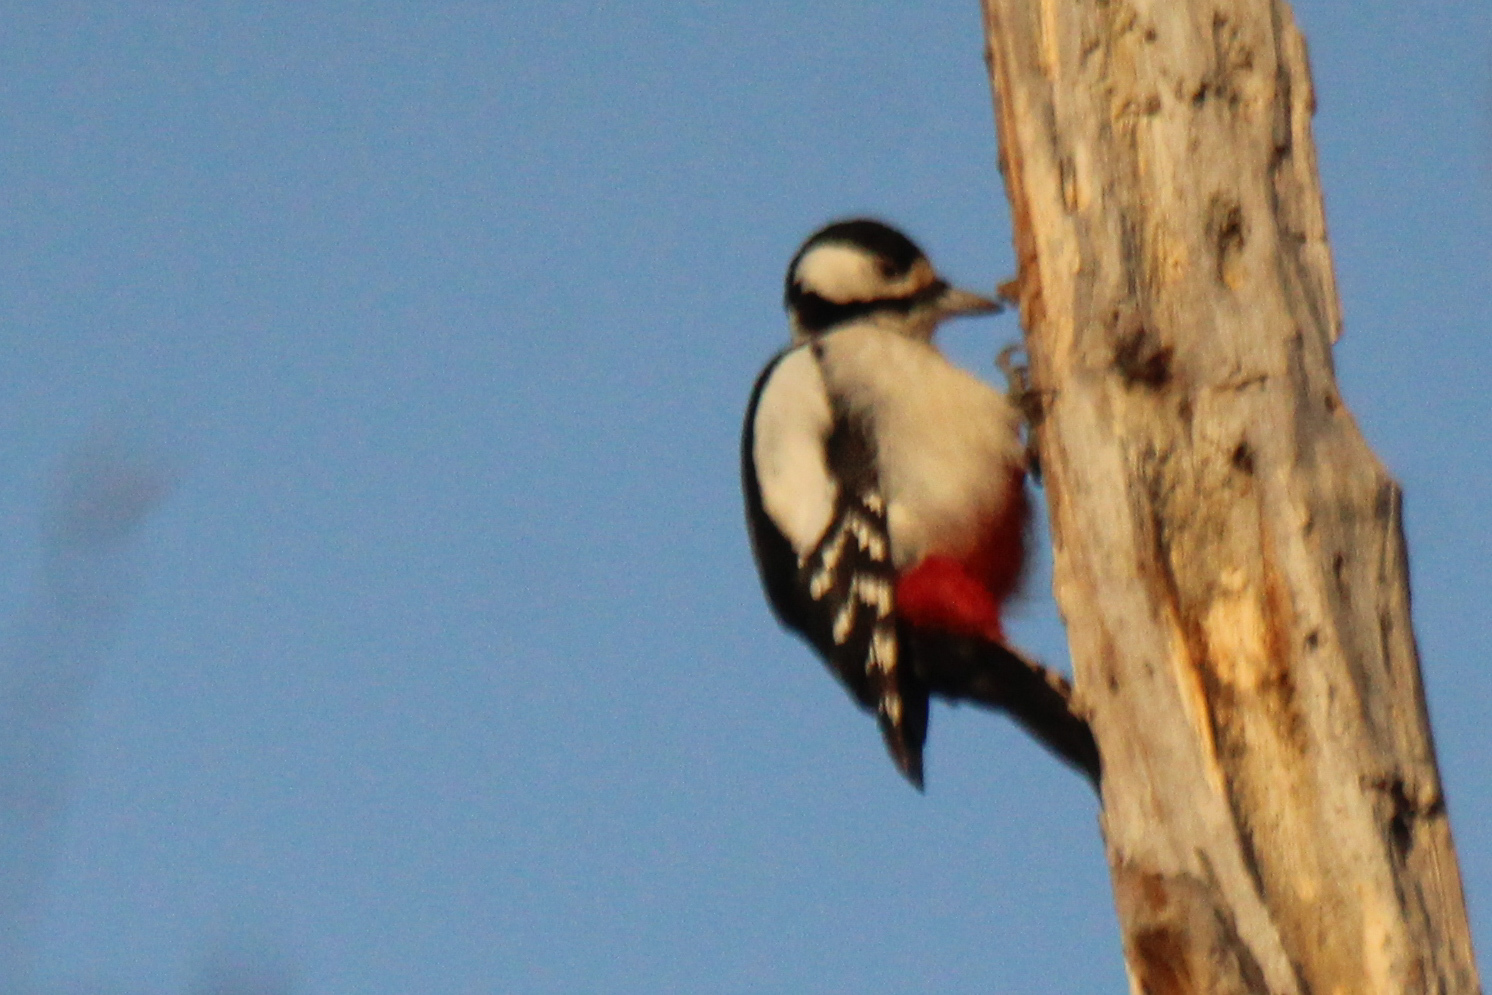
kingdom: Animalia
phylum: Chordata
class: Aves
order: Piciformes
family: Picidae
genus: Dendrocopos
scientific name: Dendrocopos major
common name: Great spotted woodpecker
